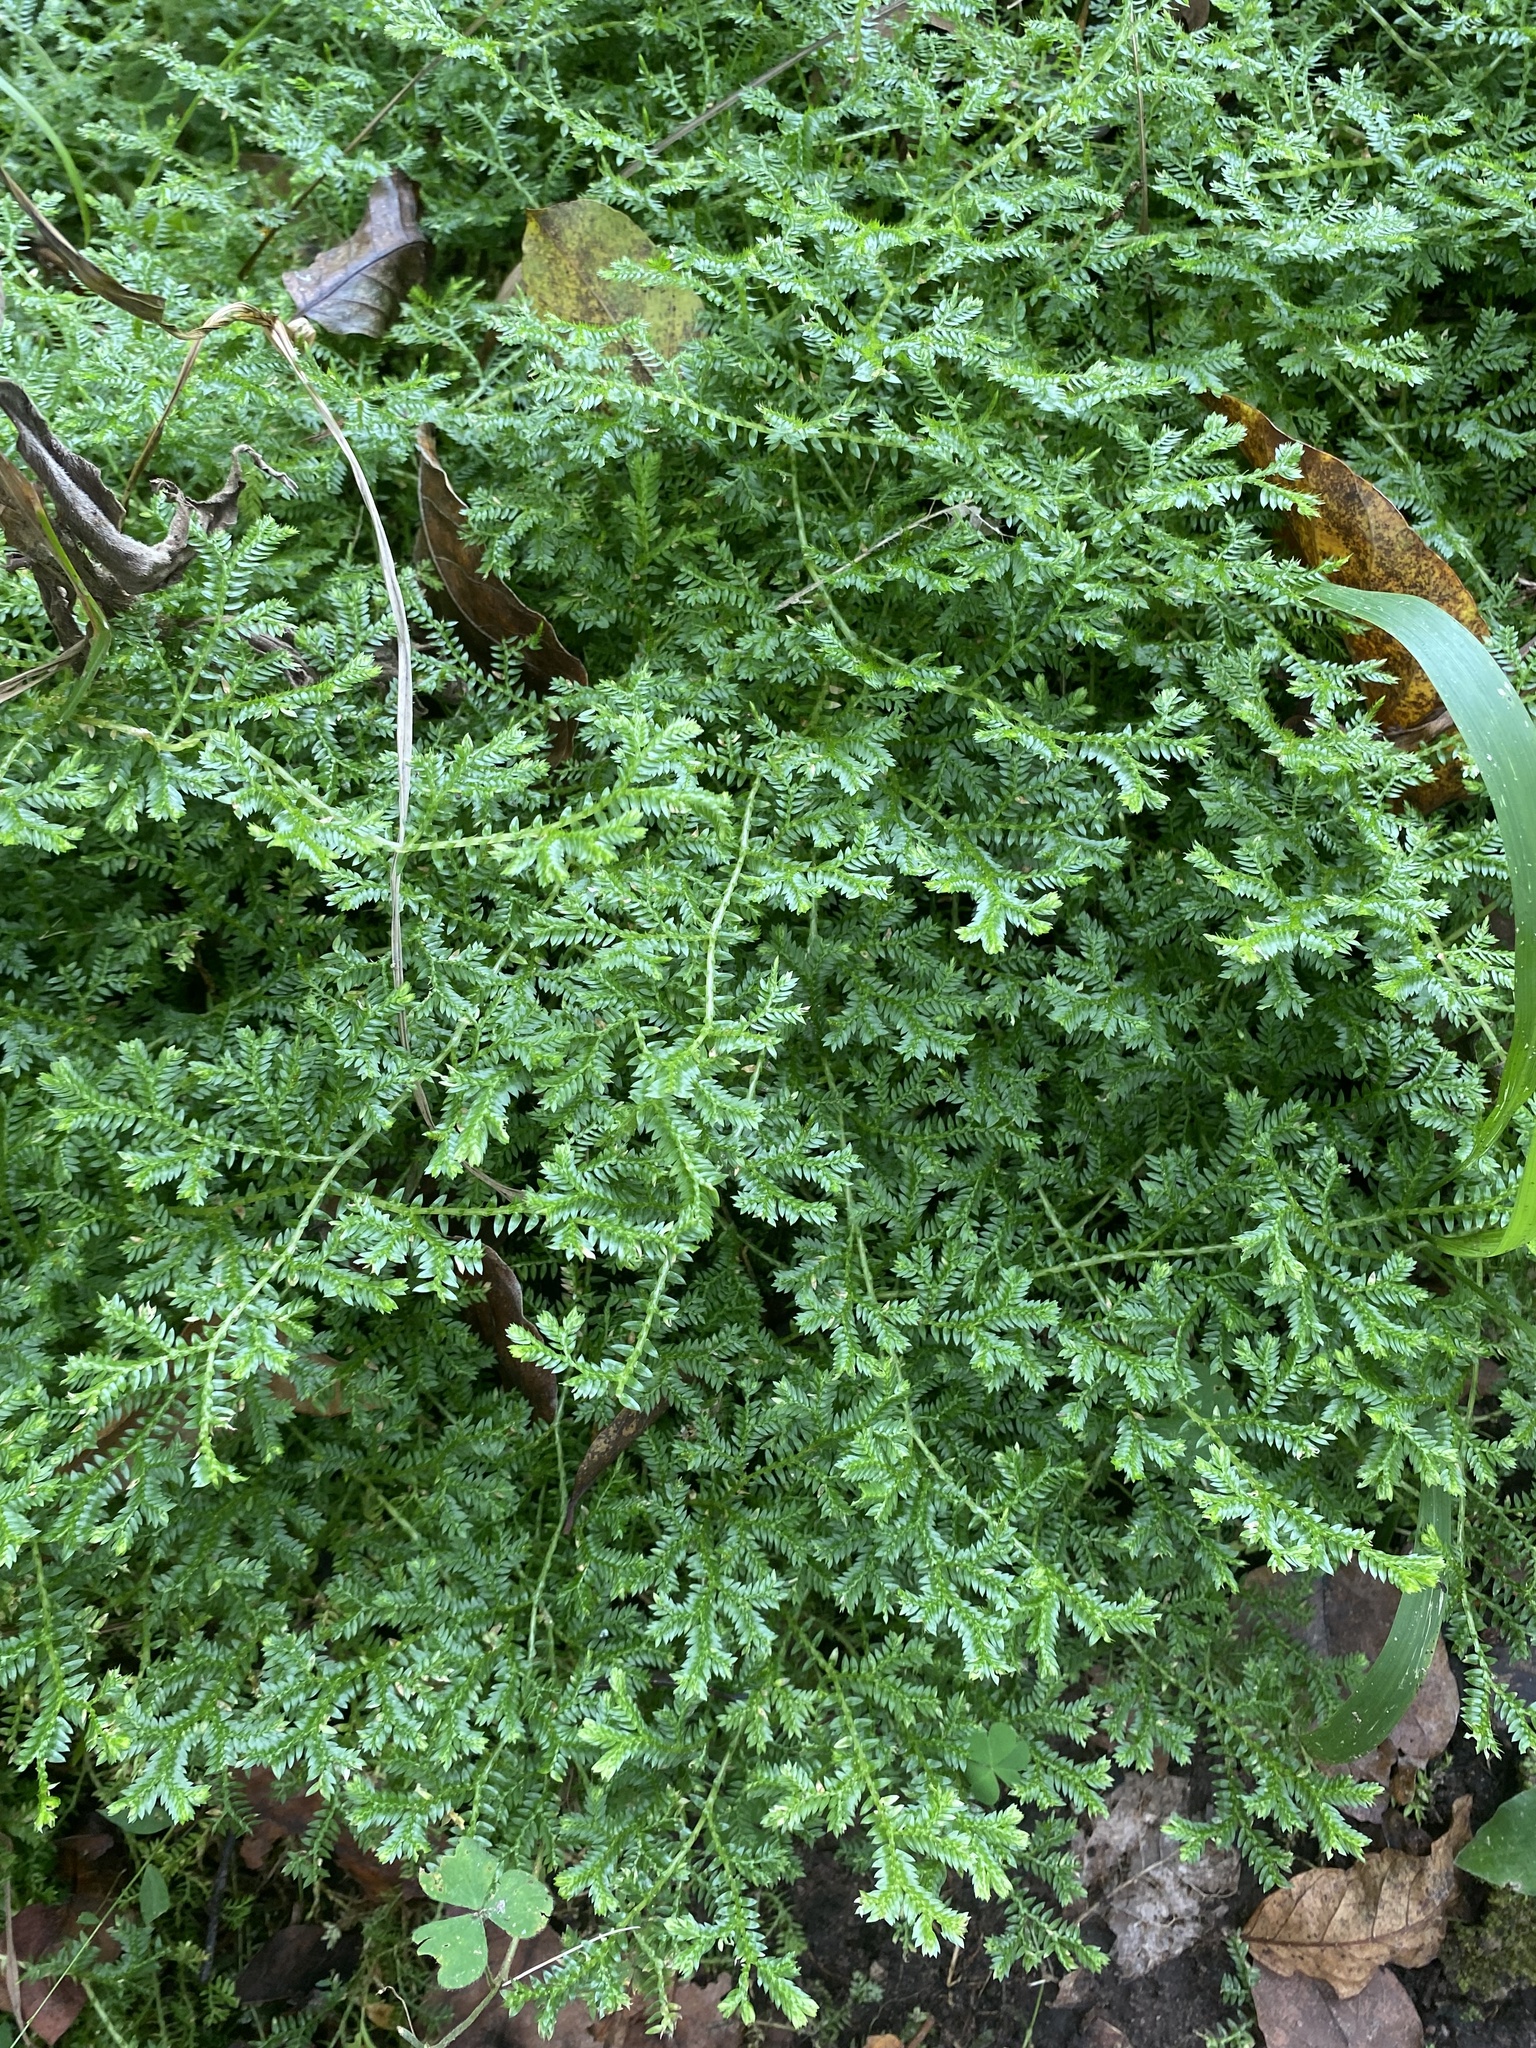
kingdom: Plantae
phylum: Tracheophyta
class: Lycopodiopsida
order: Selaginellales
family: Selaginellaceae
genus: Selaginella
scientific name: Selaginella kraussiana
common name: Krauss' spikemoss
